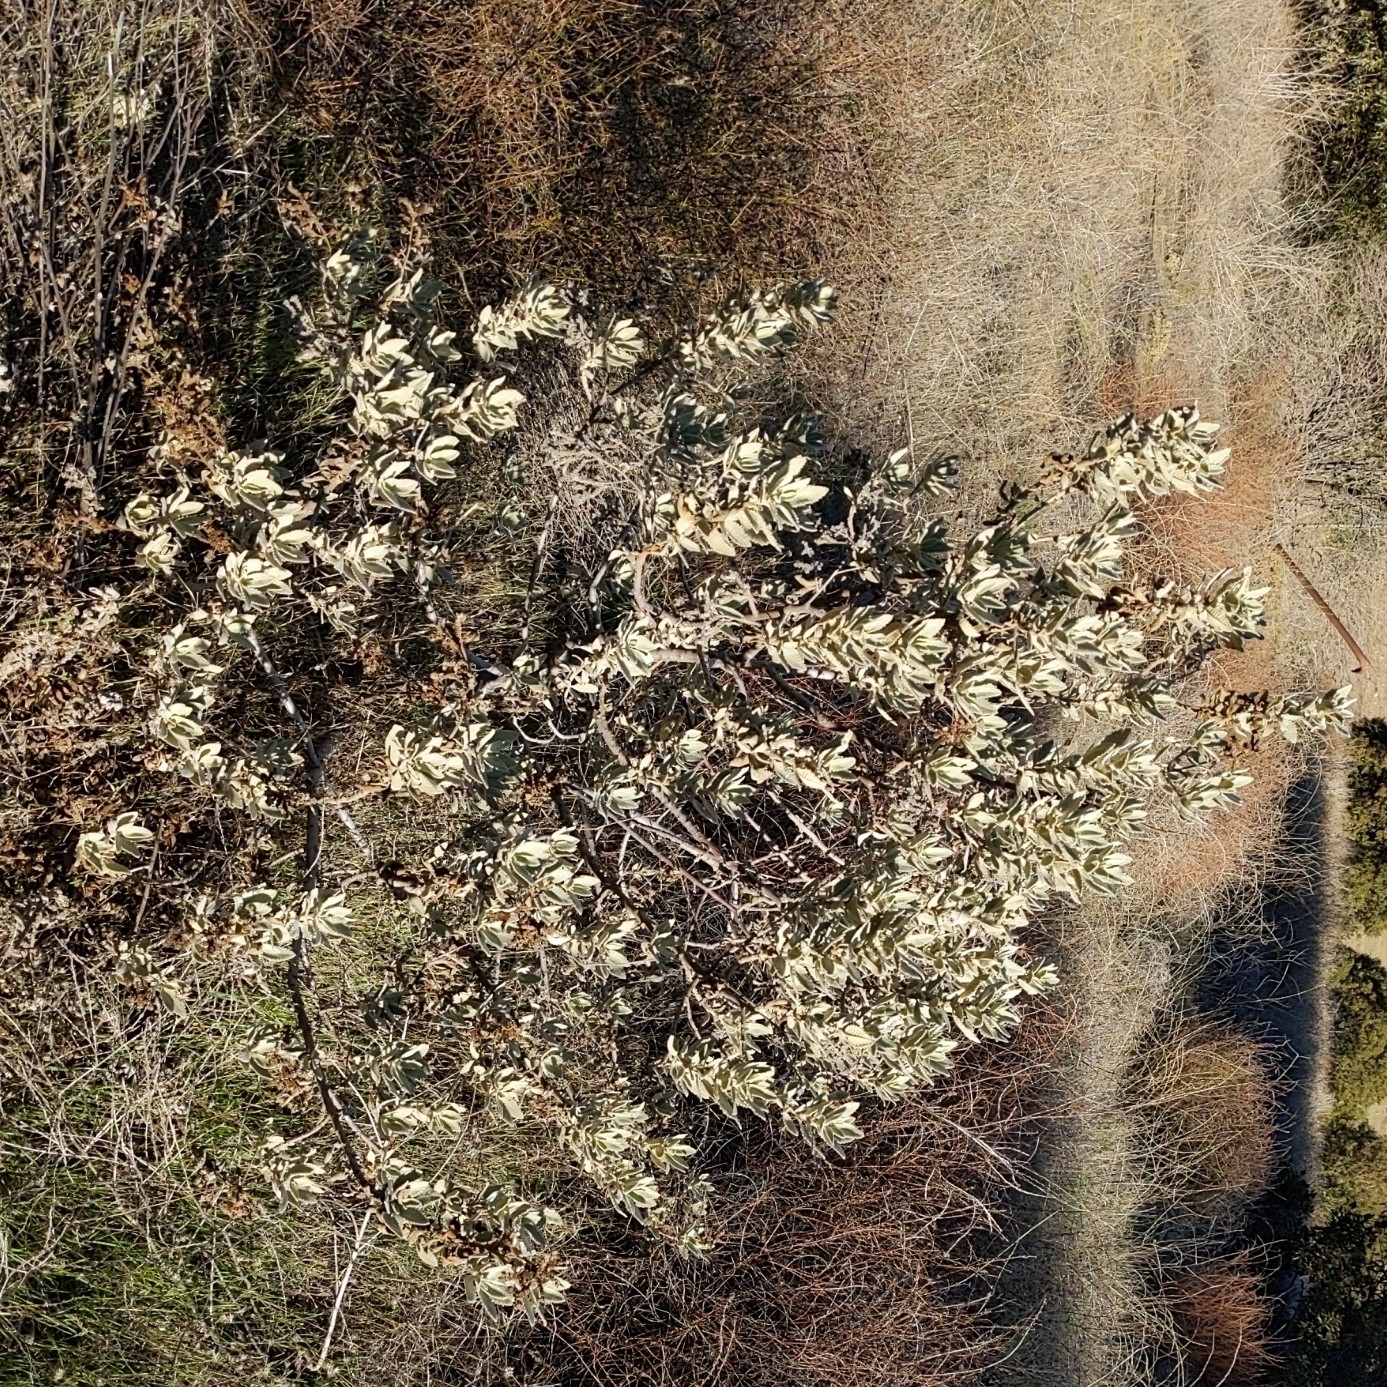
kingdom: Plantae
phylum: Tracheophyta
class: Magnoliopsida
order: Boraginales
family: Namaceae
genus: Eriodictyon
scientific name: Eriodictyon crassifolium
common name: Thick-leaf yerba-santa
